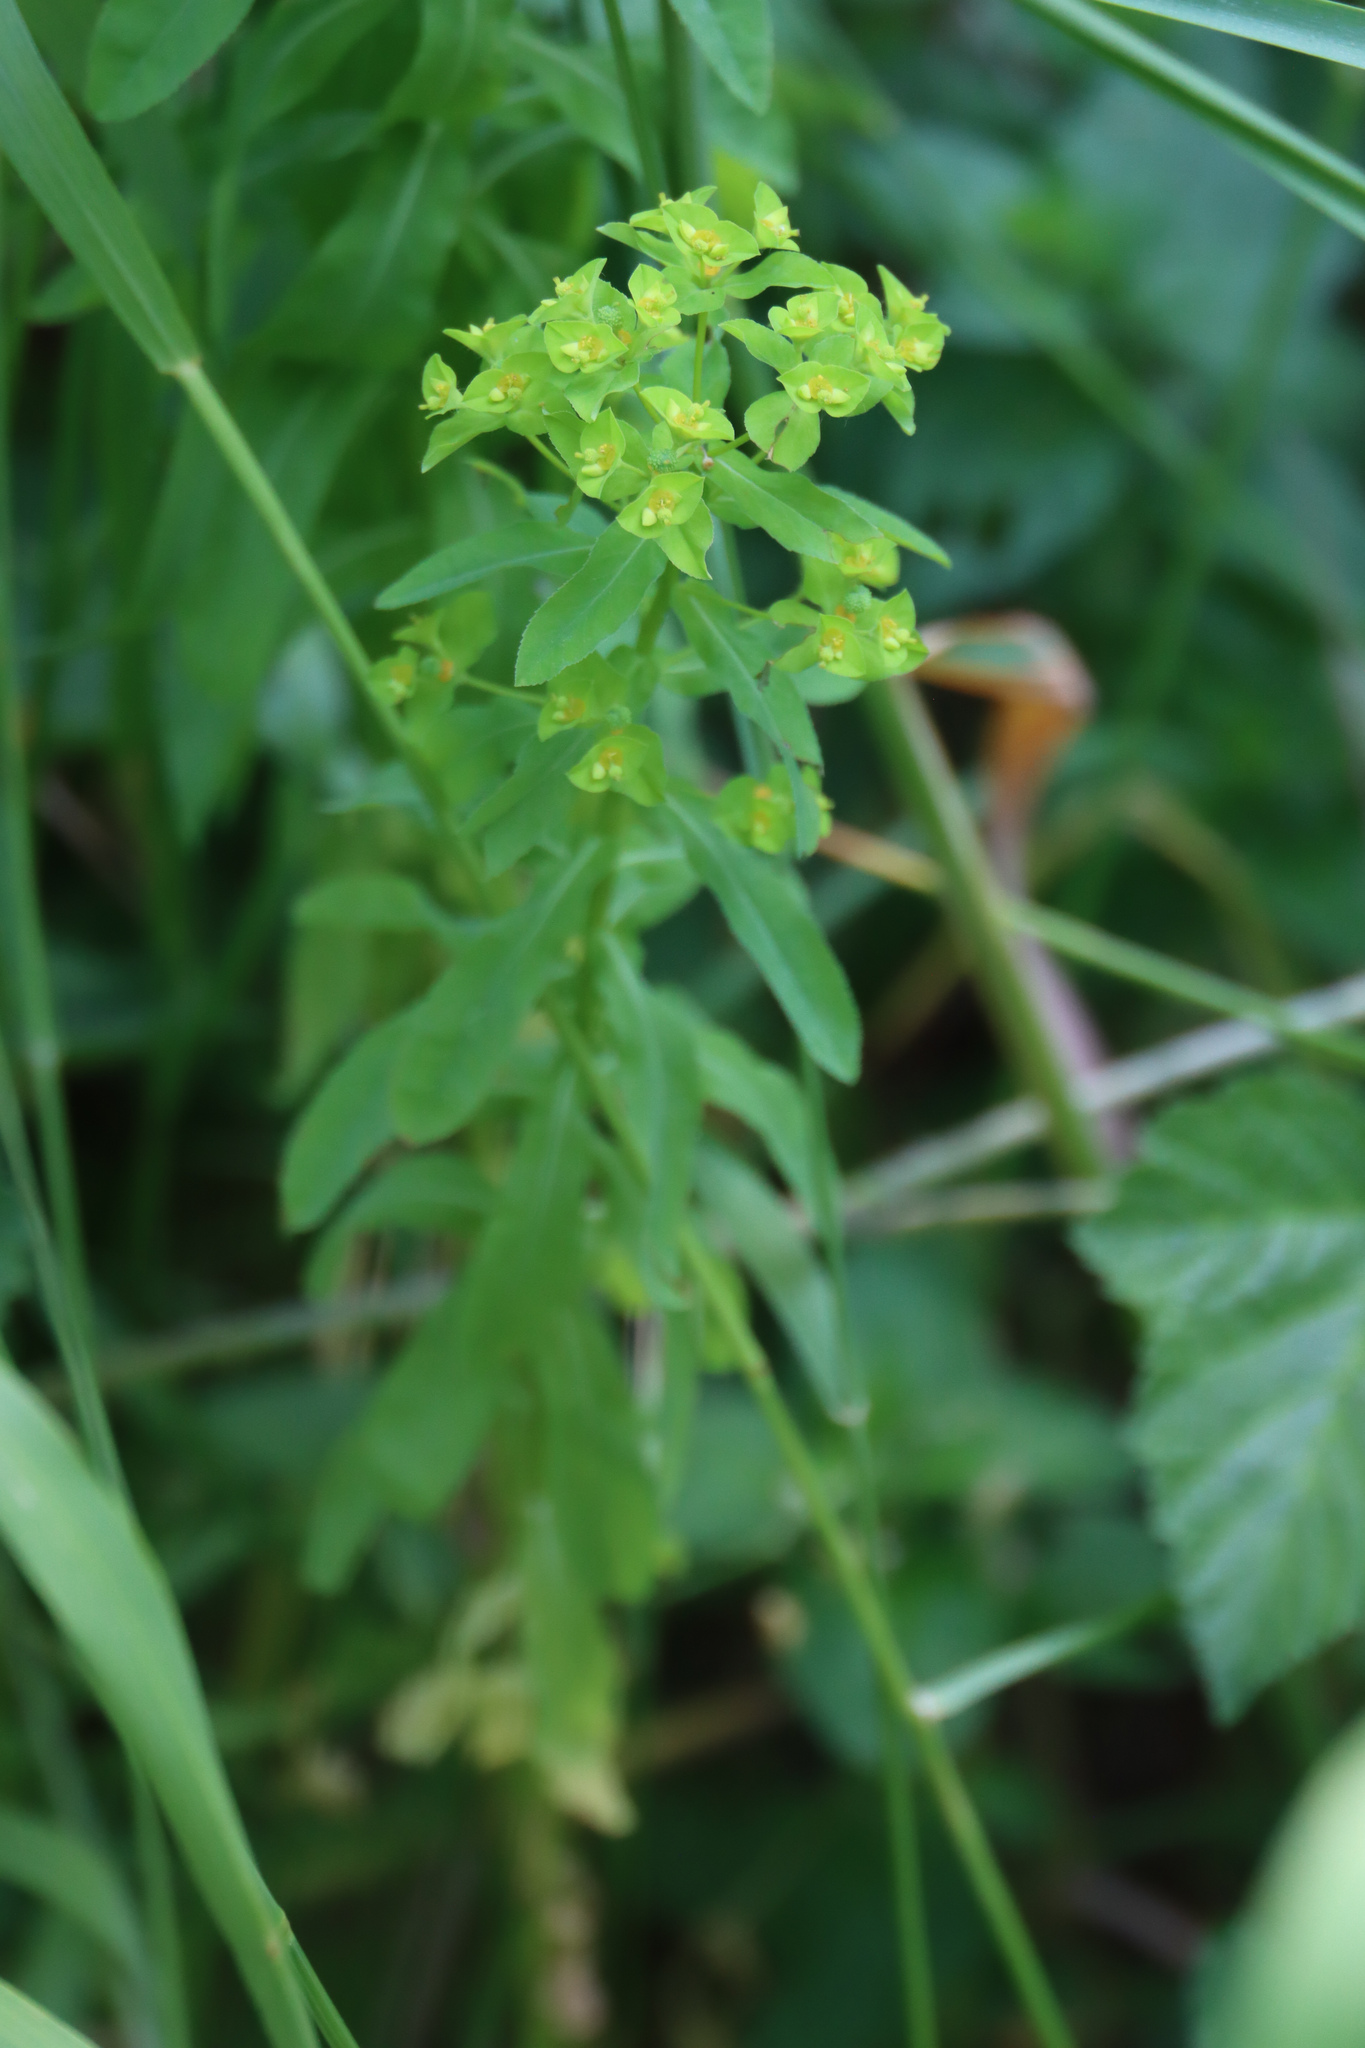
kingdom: Plantae
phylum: Tracheophyta
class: Magnoliopsida
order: Malpighiales
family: Euphorbiaceae
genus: Euphorbia
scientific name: Euphorbia stricta
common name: Upright spurge
